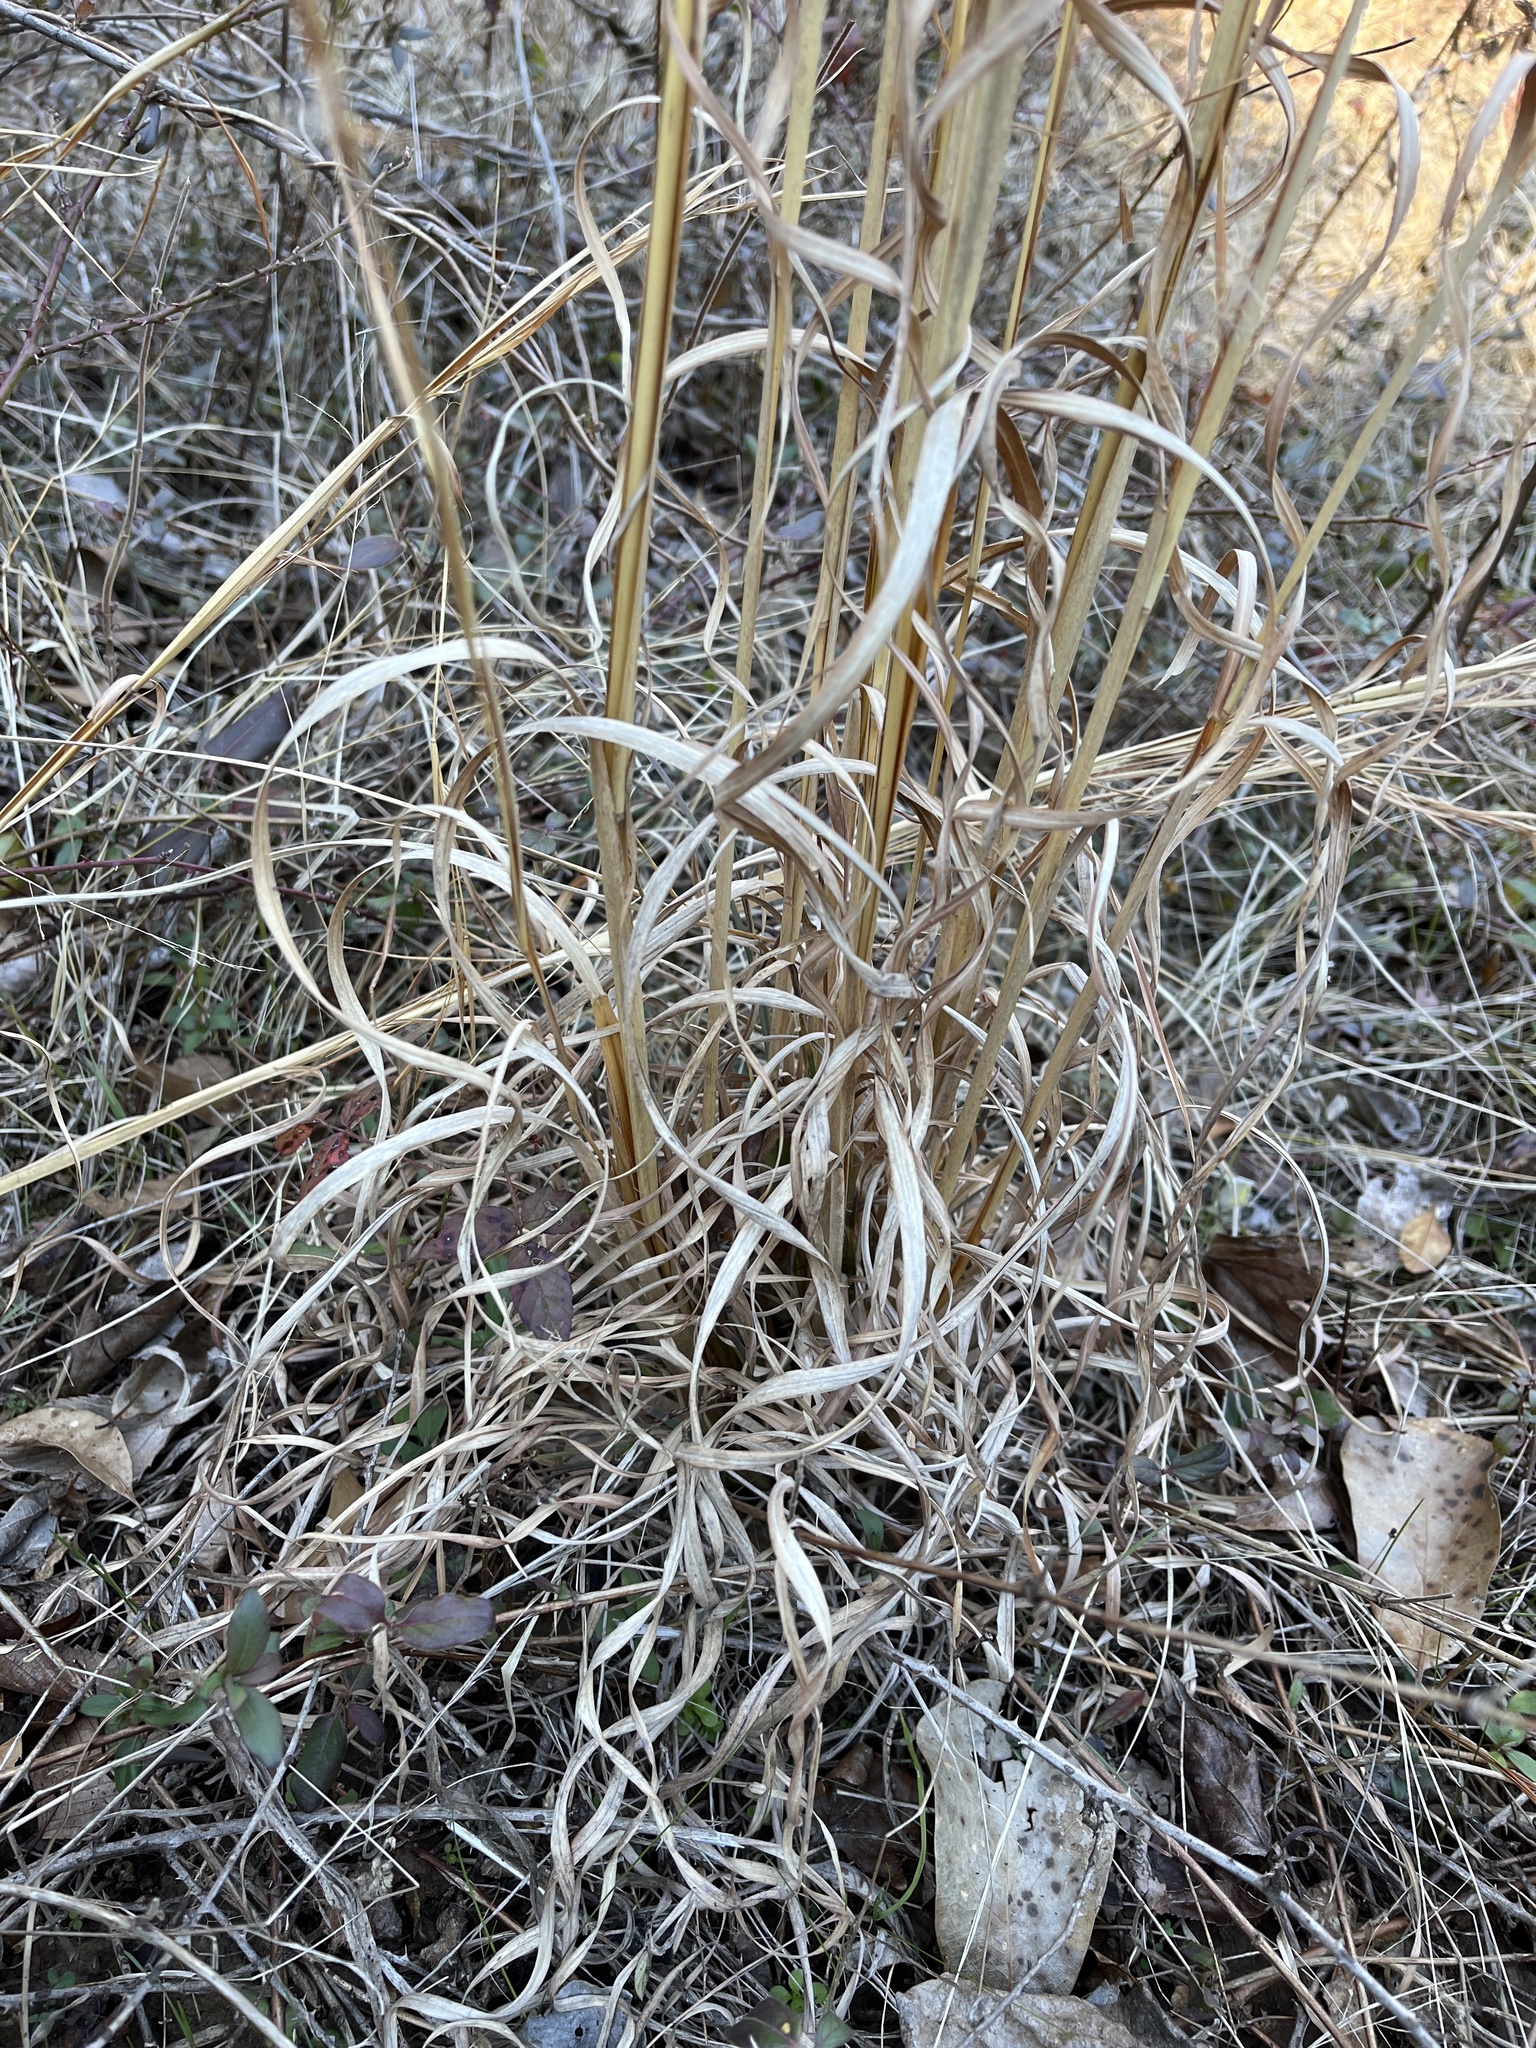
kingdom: Plantae
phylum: Tracheophyta
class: Liliopsida
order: Poales
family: Poaceae
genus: Andropogon
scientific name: Andropogon virginicus
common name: Broomsedge bluestem
